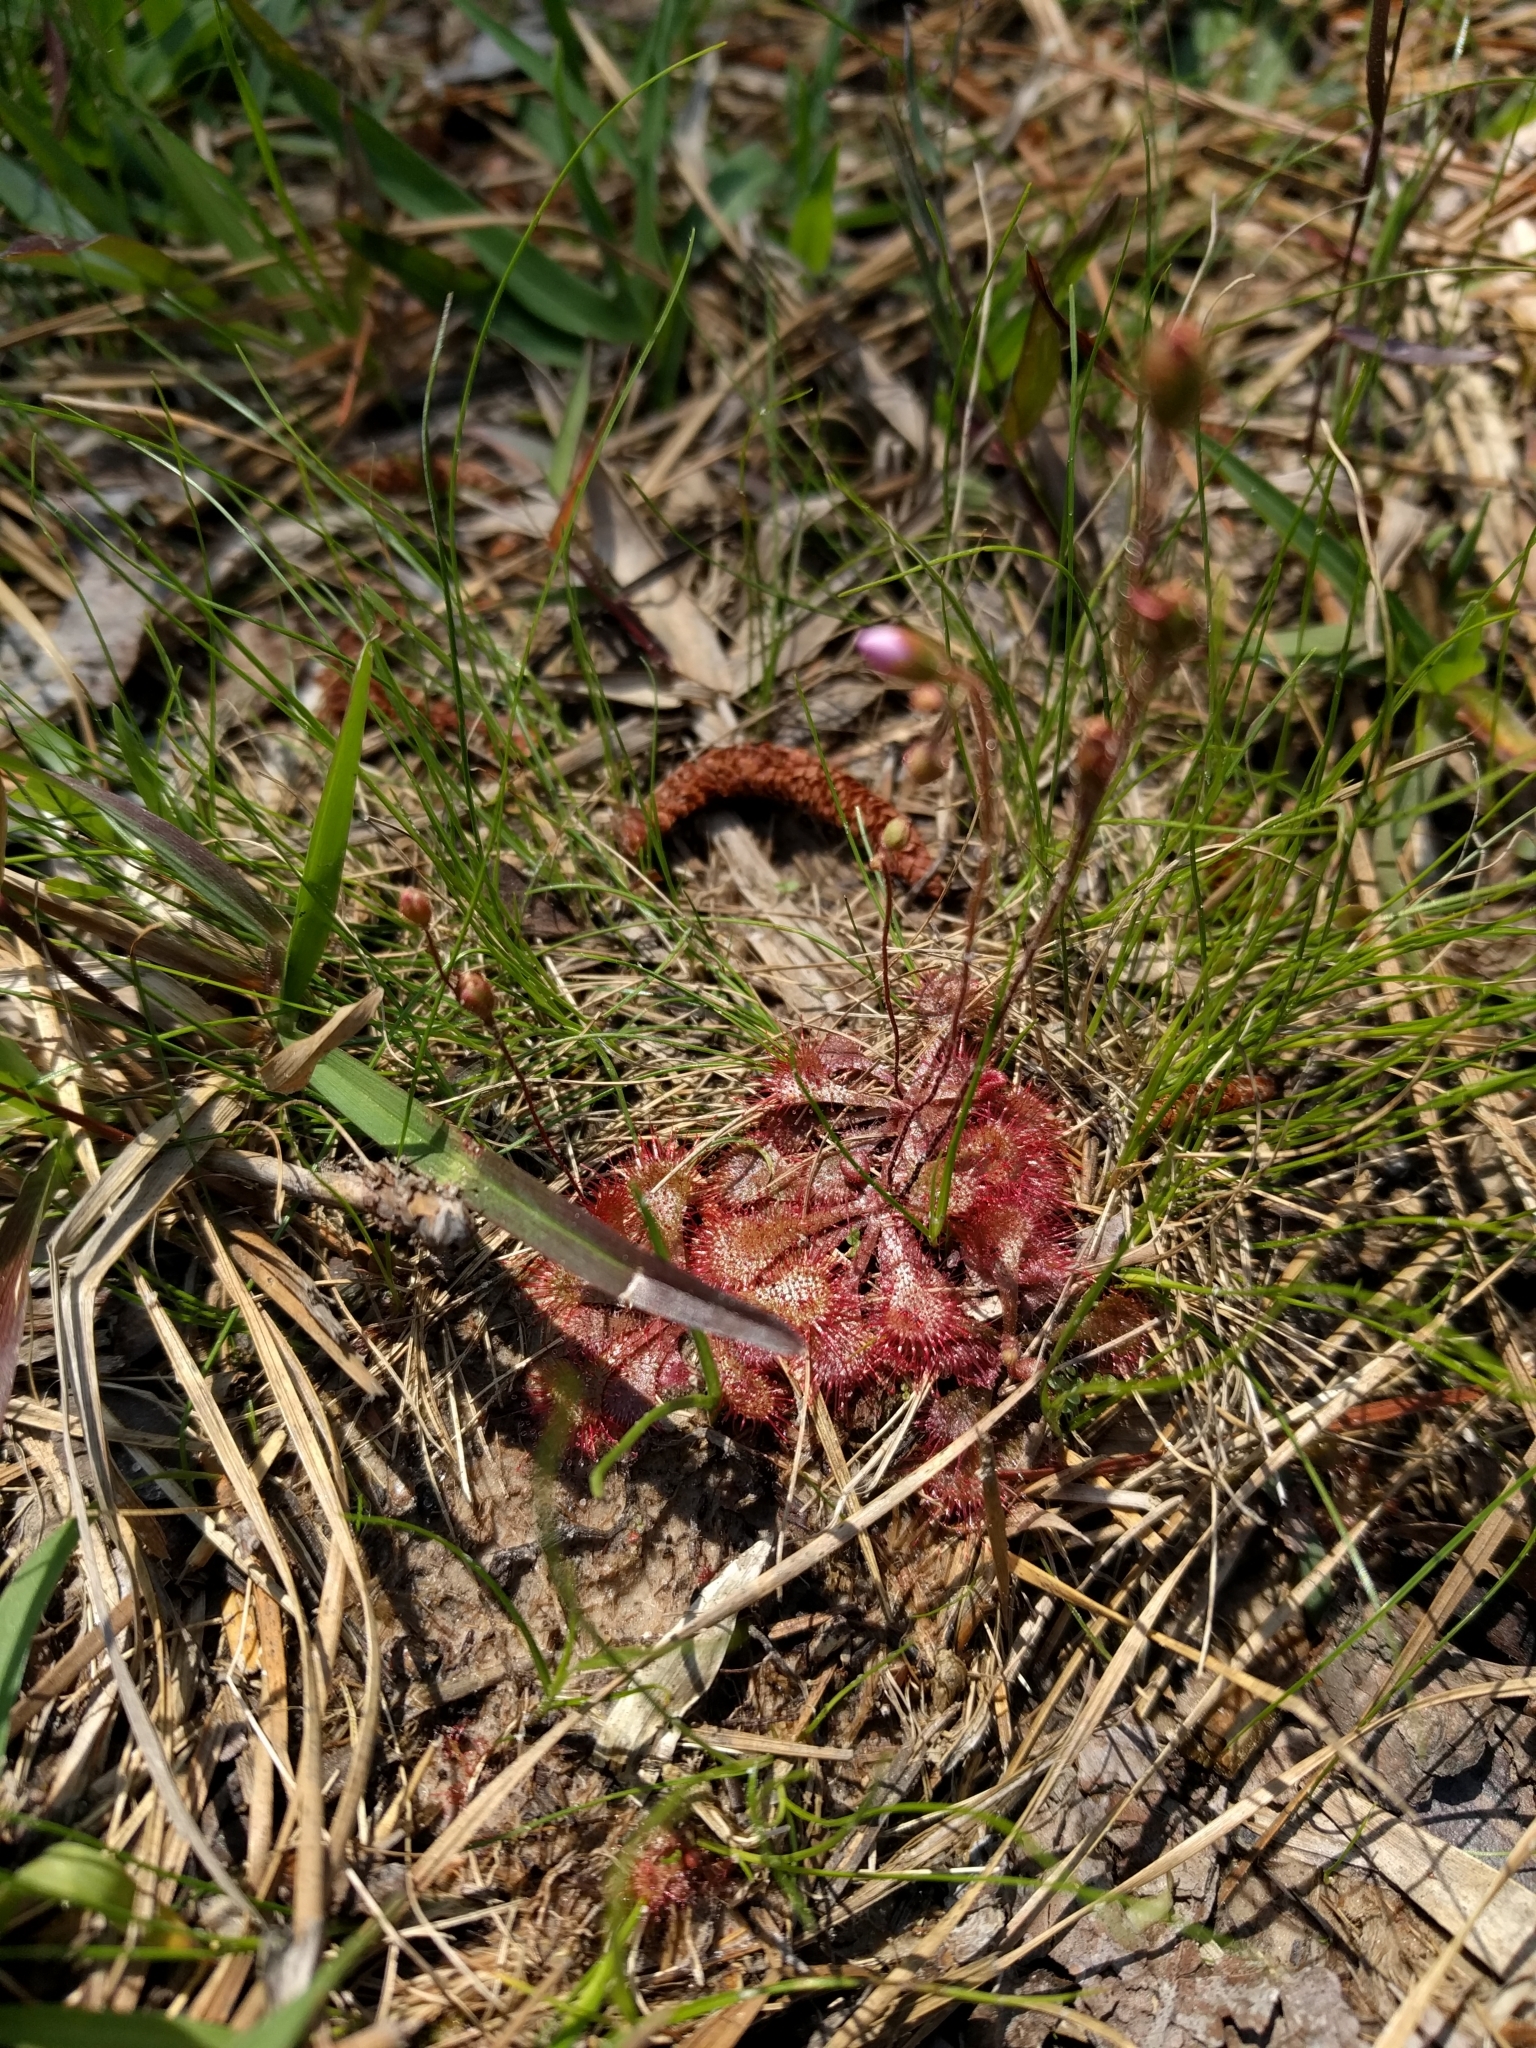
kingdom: Plantae
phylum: Tracheophyta
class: Magnoliopsida
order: Caryophyllales
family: Droseraceae
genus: Drosera
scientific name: Drosera brevifolia
